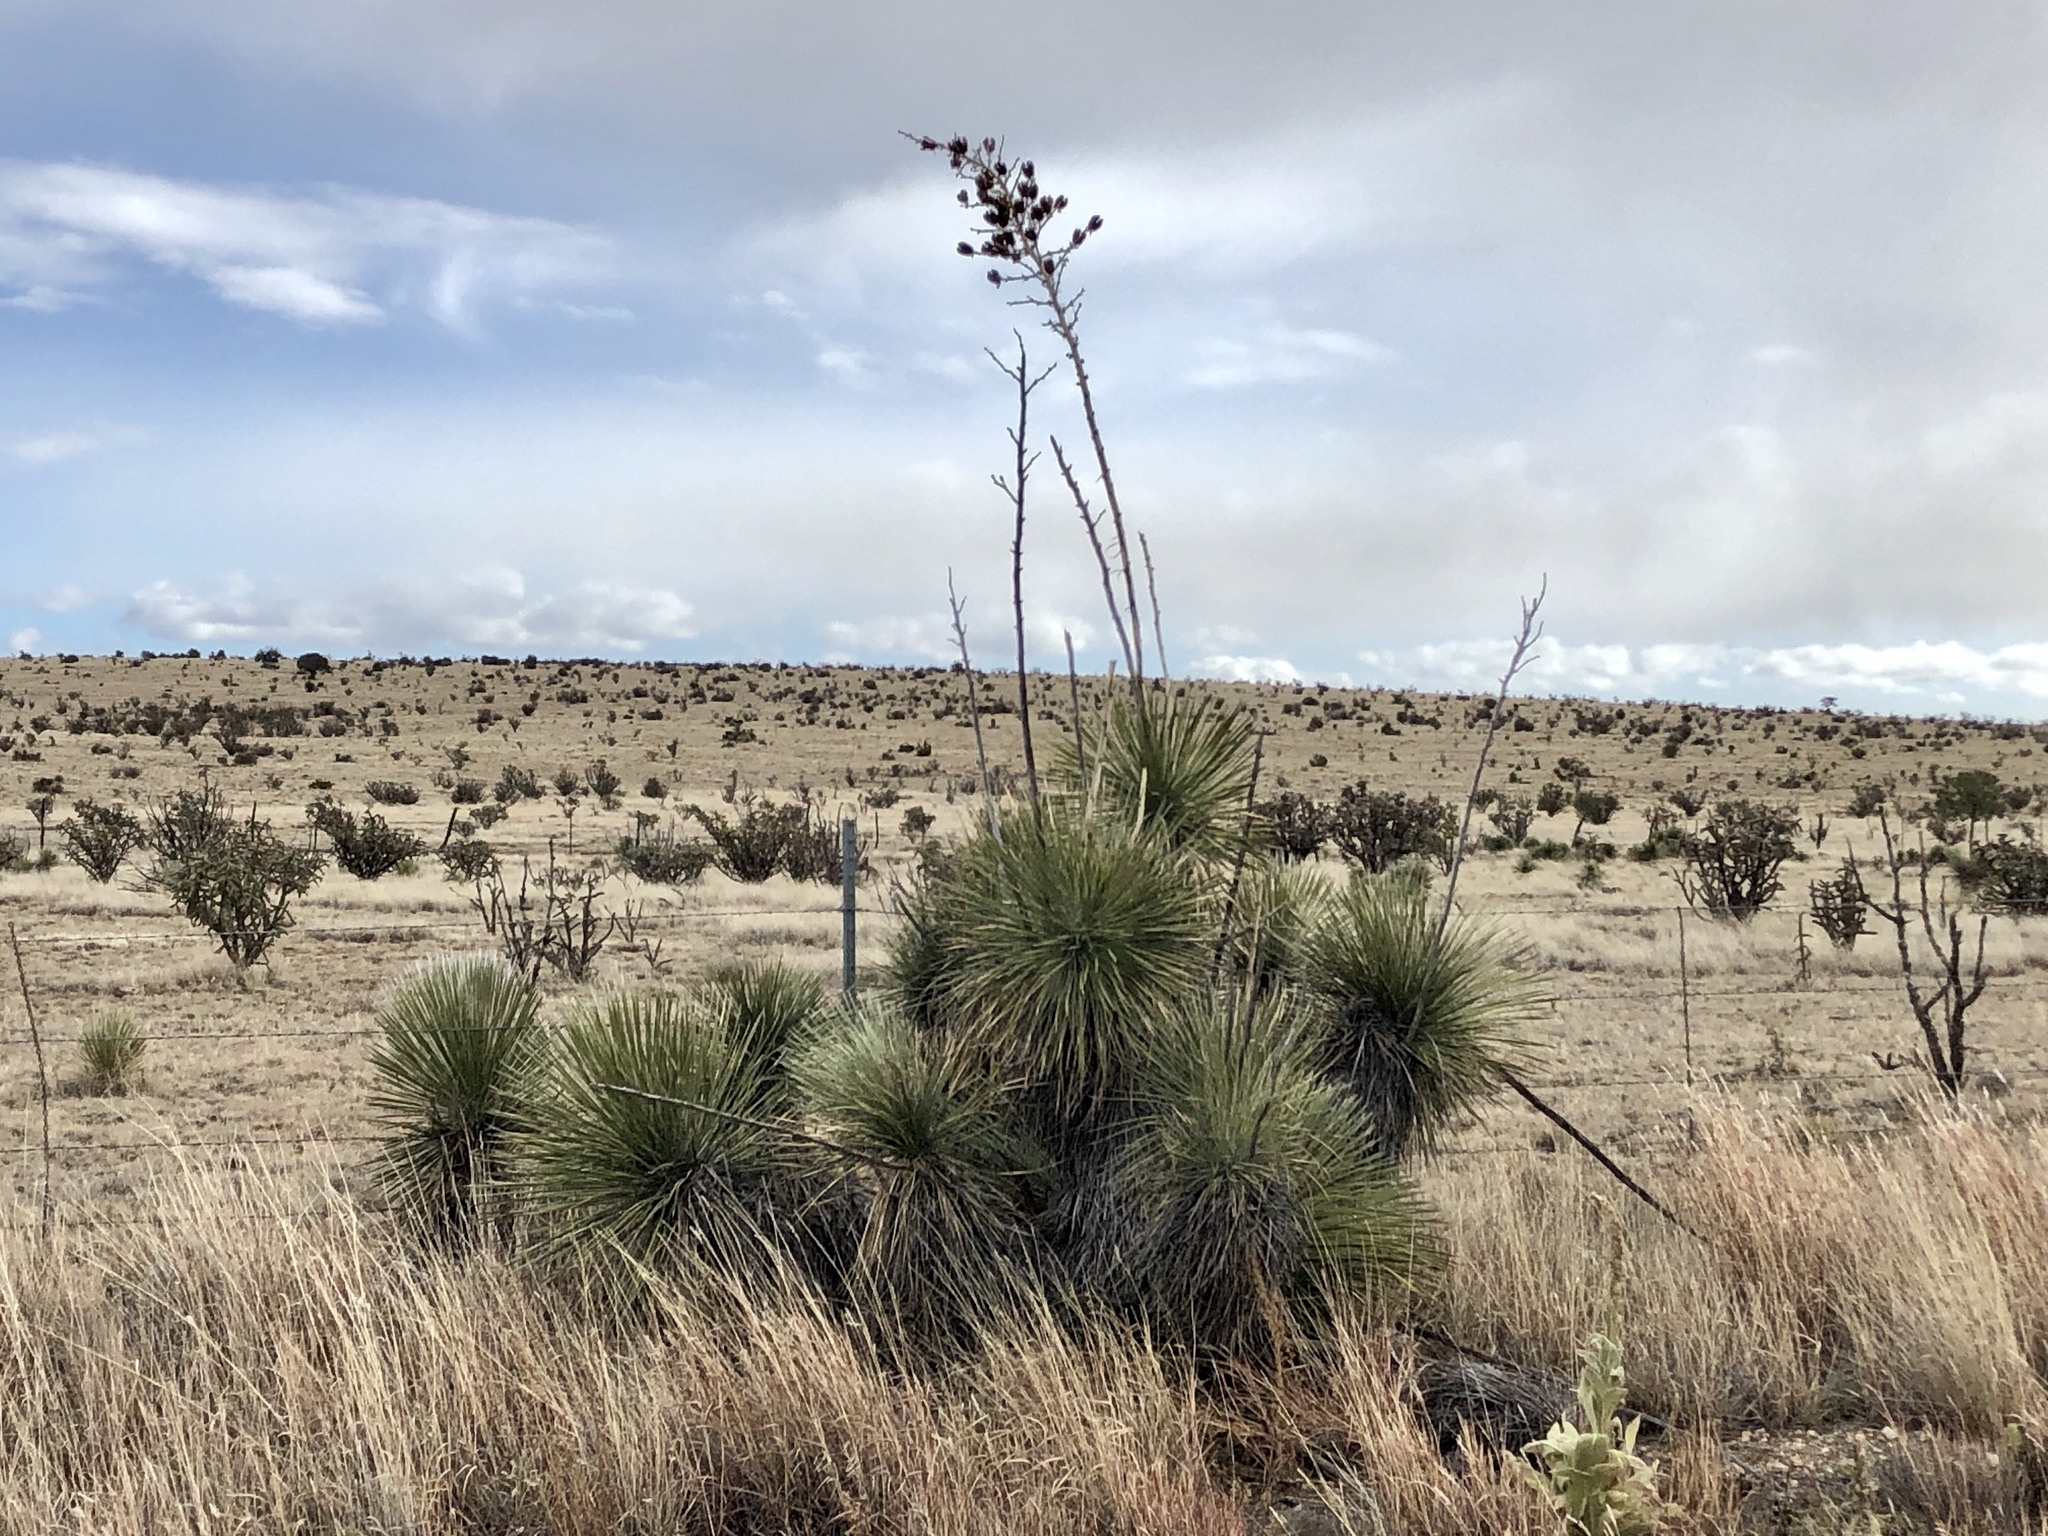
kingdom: Plantae
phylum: Tracheophyta
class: Liliopsida
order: Asparagales
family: Asparagaceae
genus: Yucca
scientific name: Yucca elata
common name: Palmella
